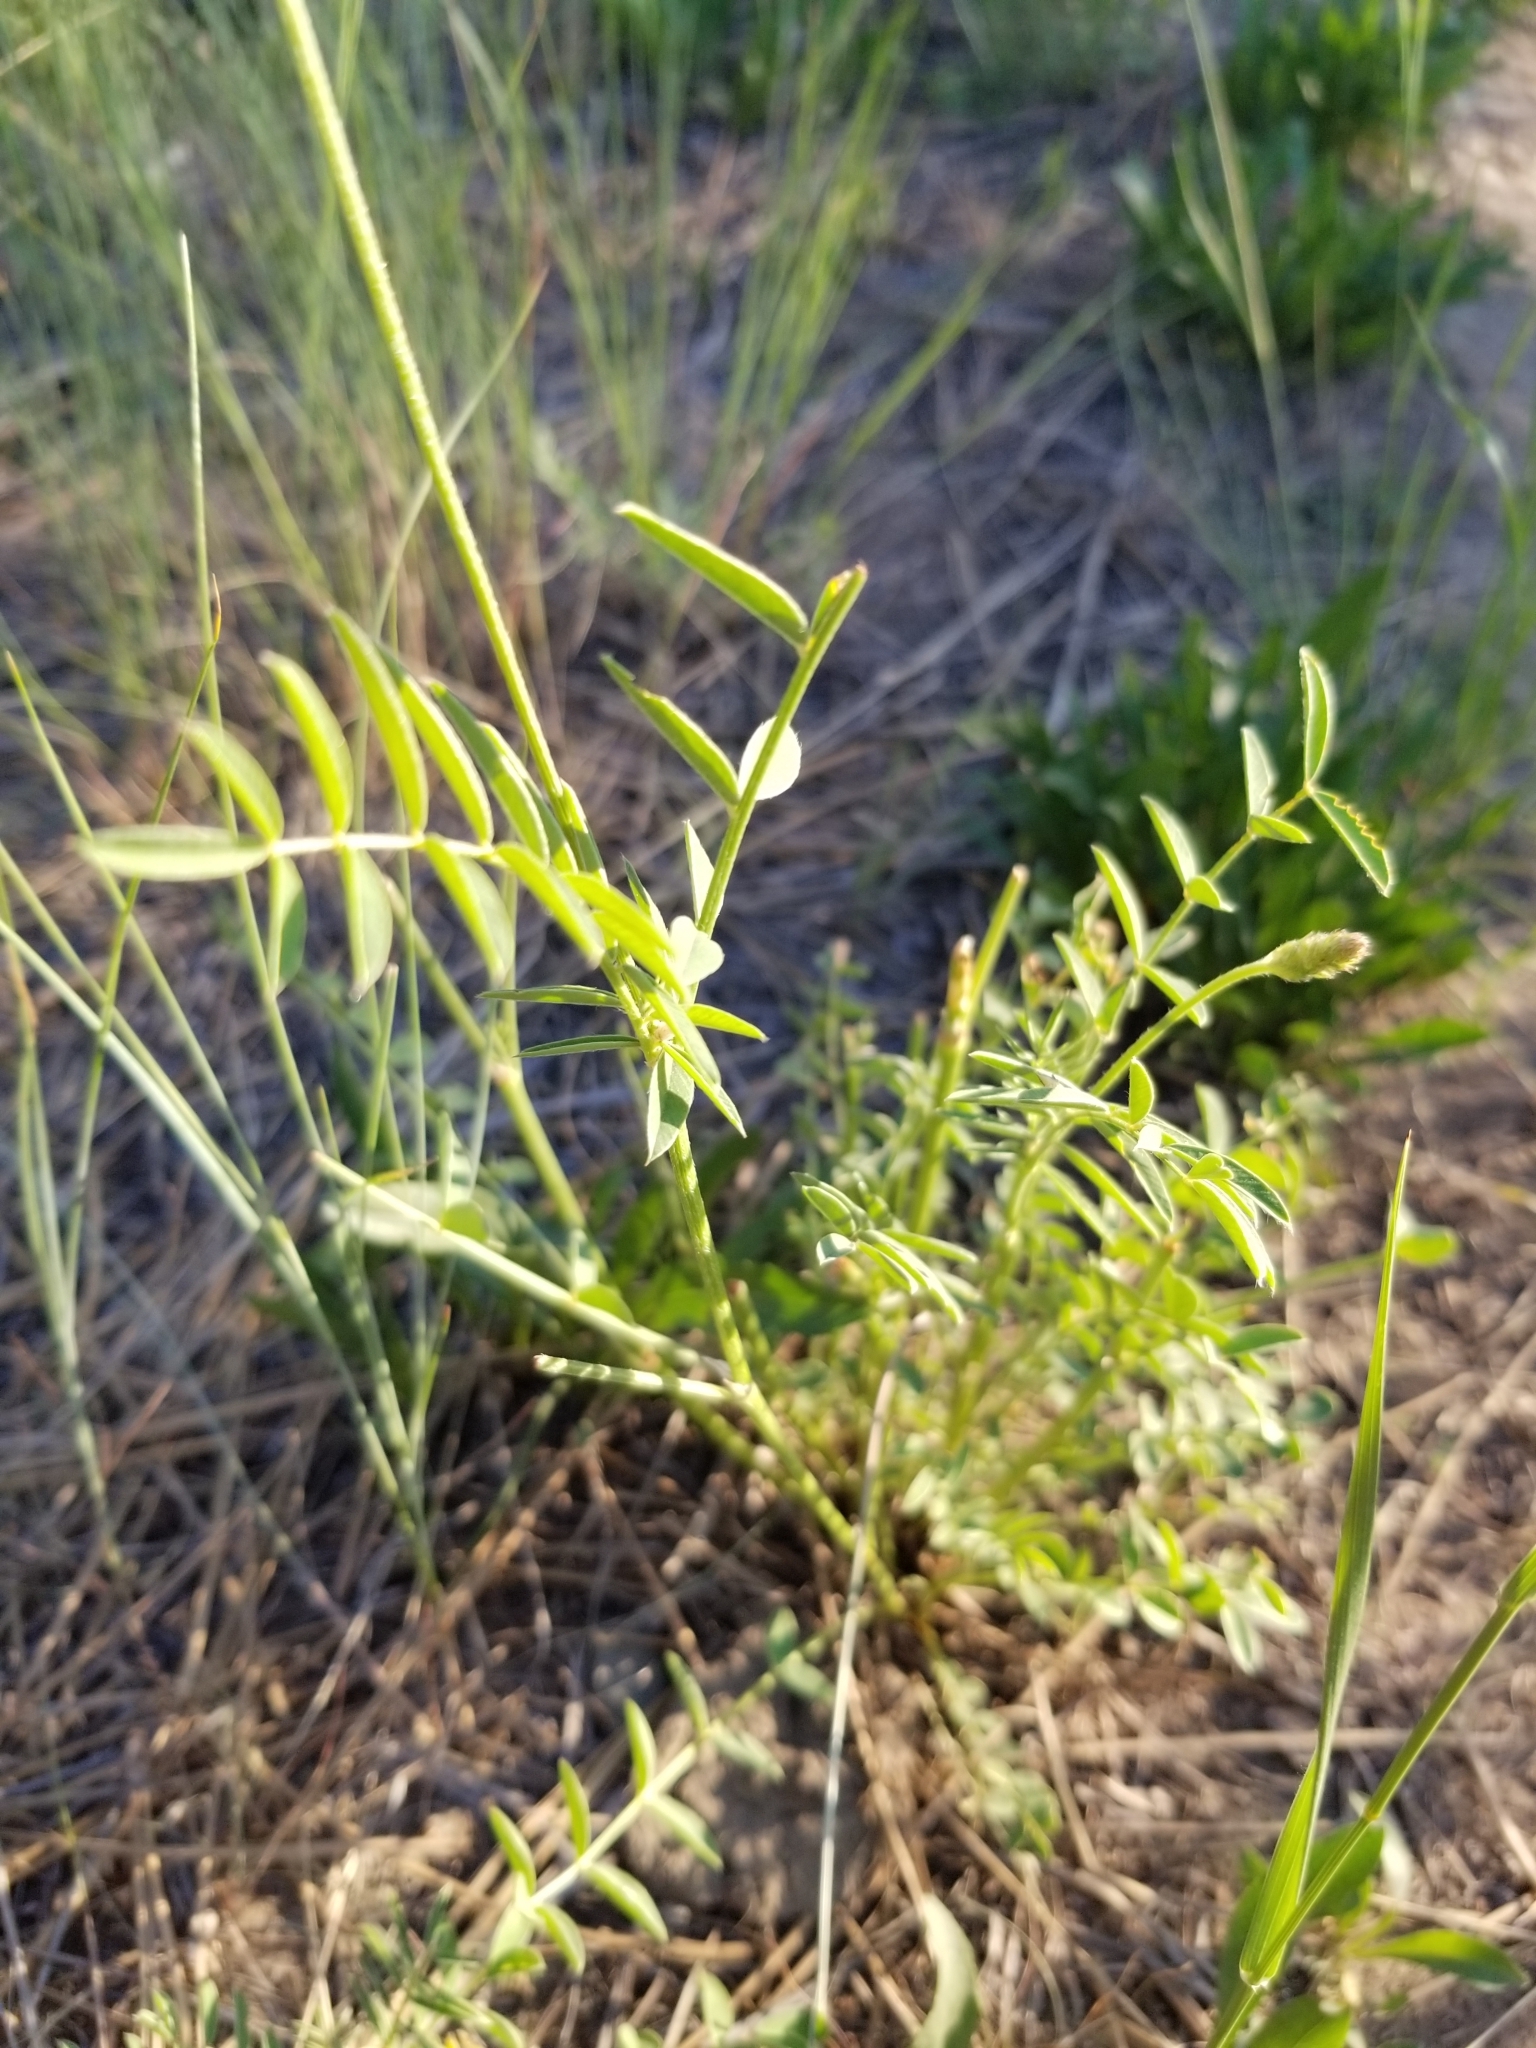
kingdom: Plantae
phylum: Tracheophyta
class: Magnoliopsida
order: Fabales
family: Fabaceae
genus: Onobrychis
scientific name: Onobrychis viciifolia
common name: Sainfoin
